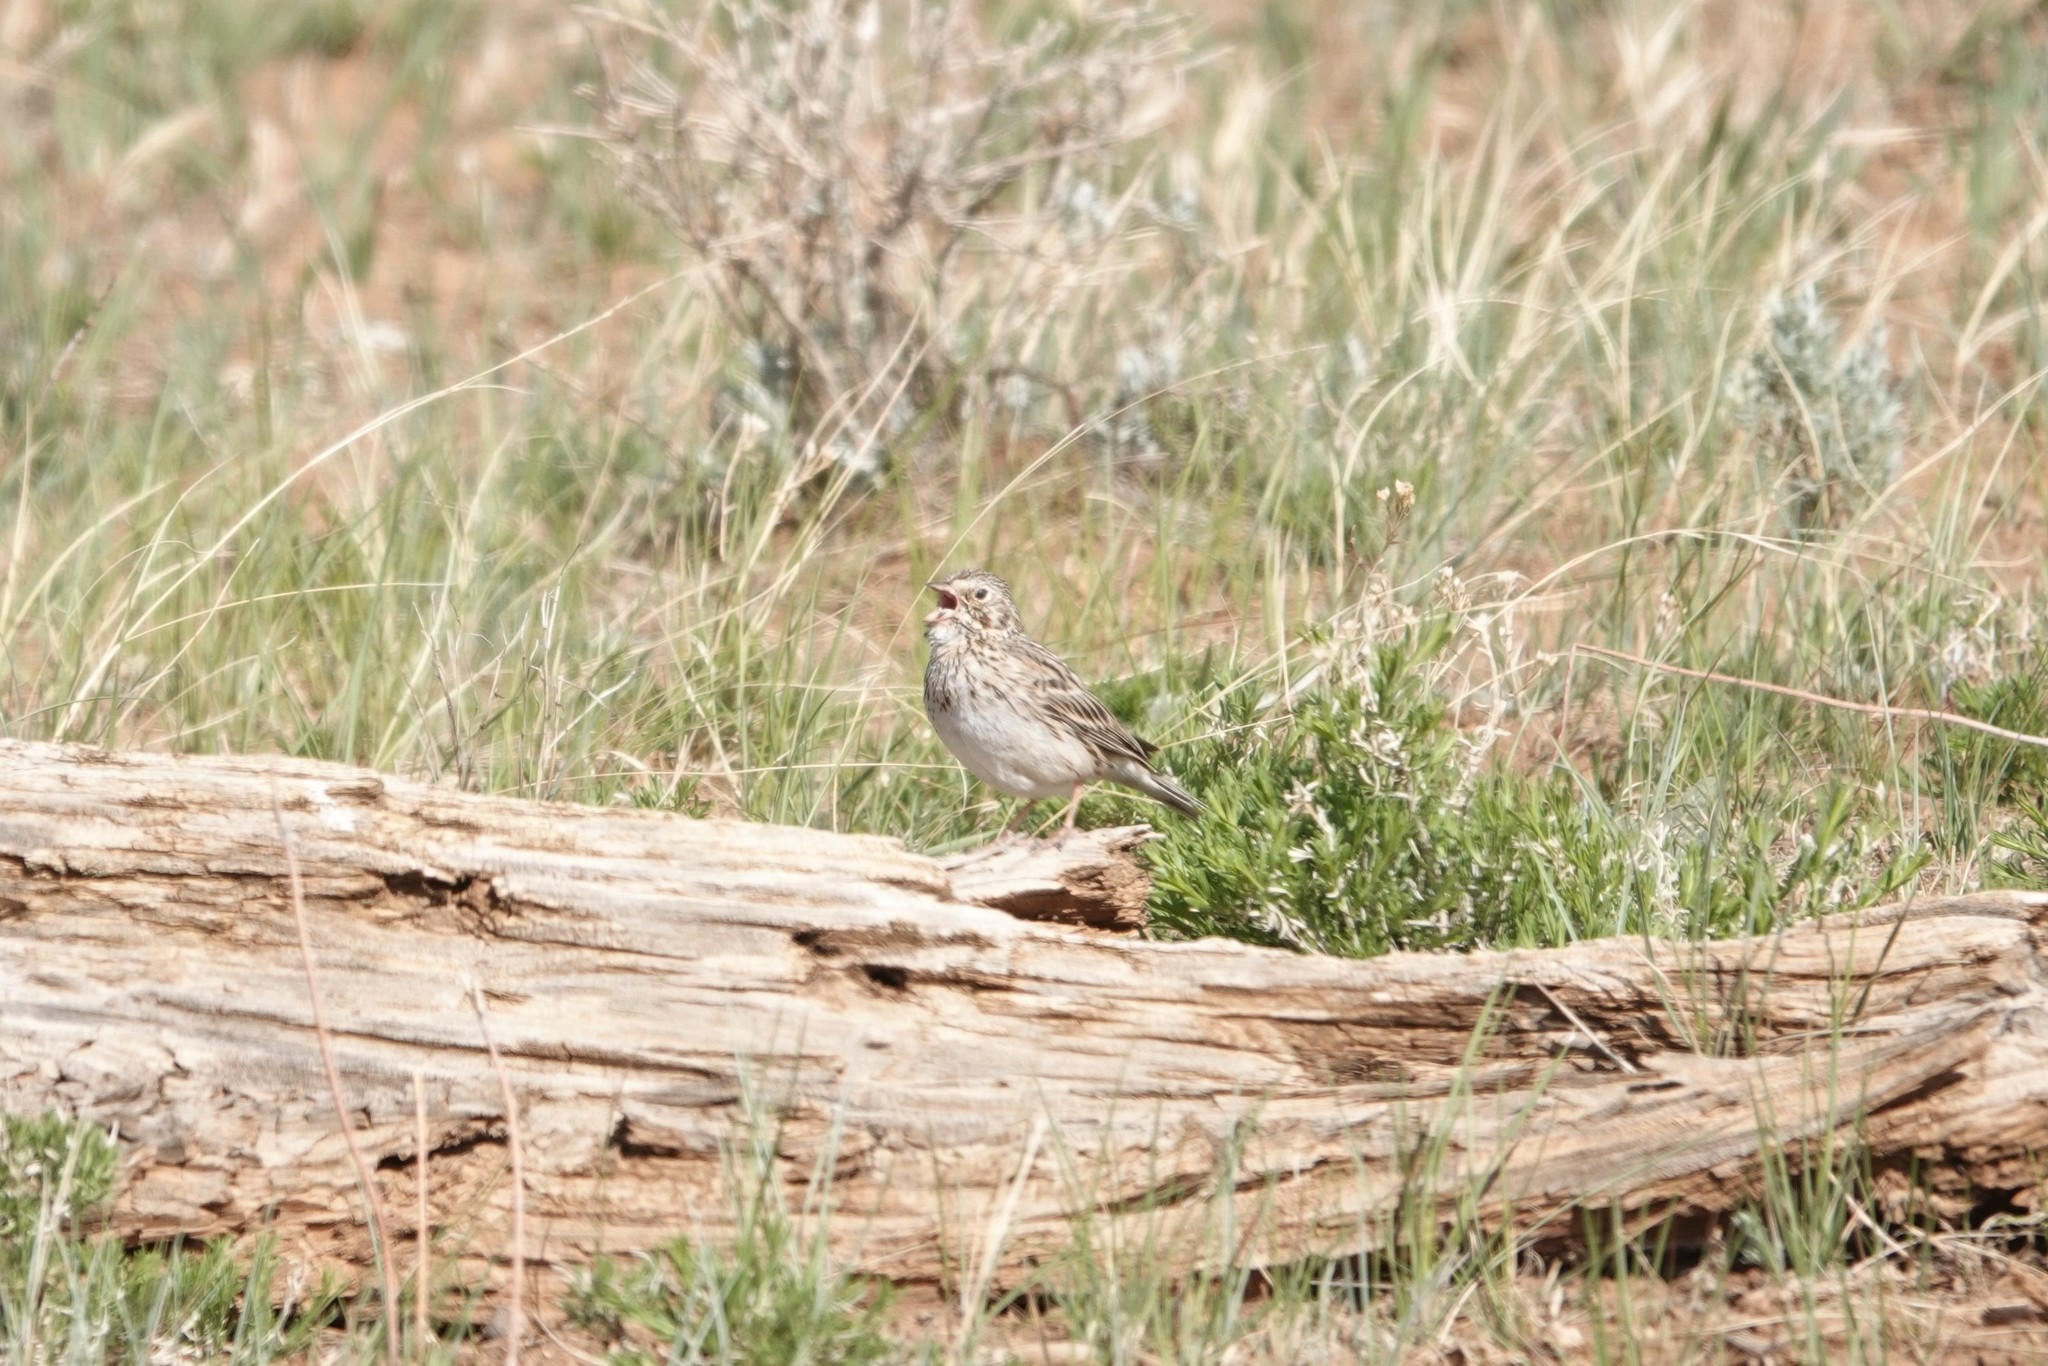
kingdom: Animalia
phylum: Chordata
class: Aves
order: Passeriformes
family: Passerellidae
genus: Pooecetes
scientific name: Pooecetes gramineus
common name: Vesper sparrow
